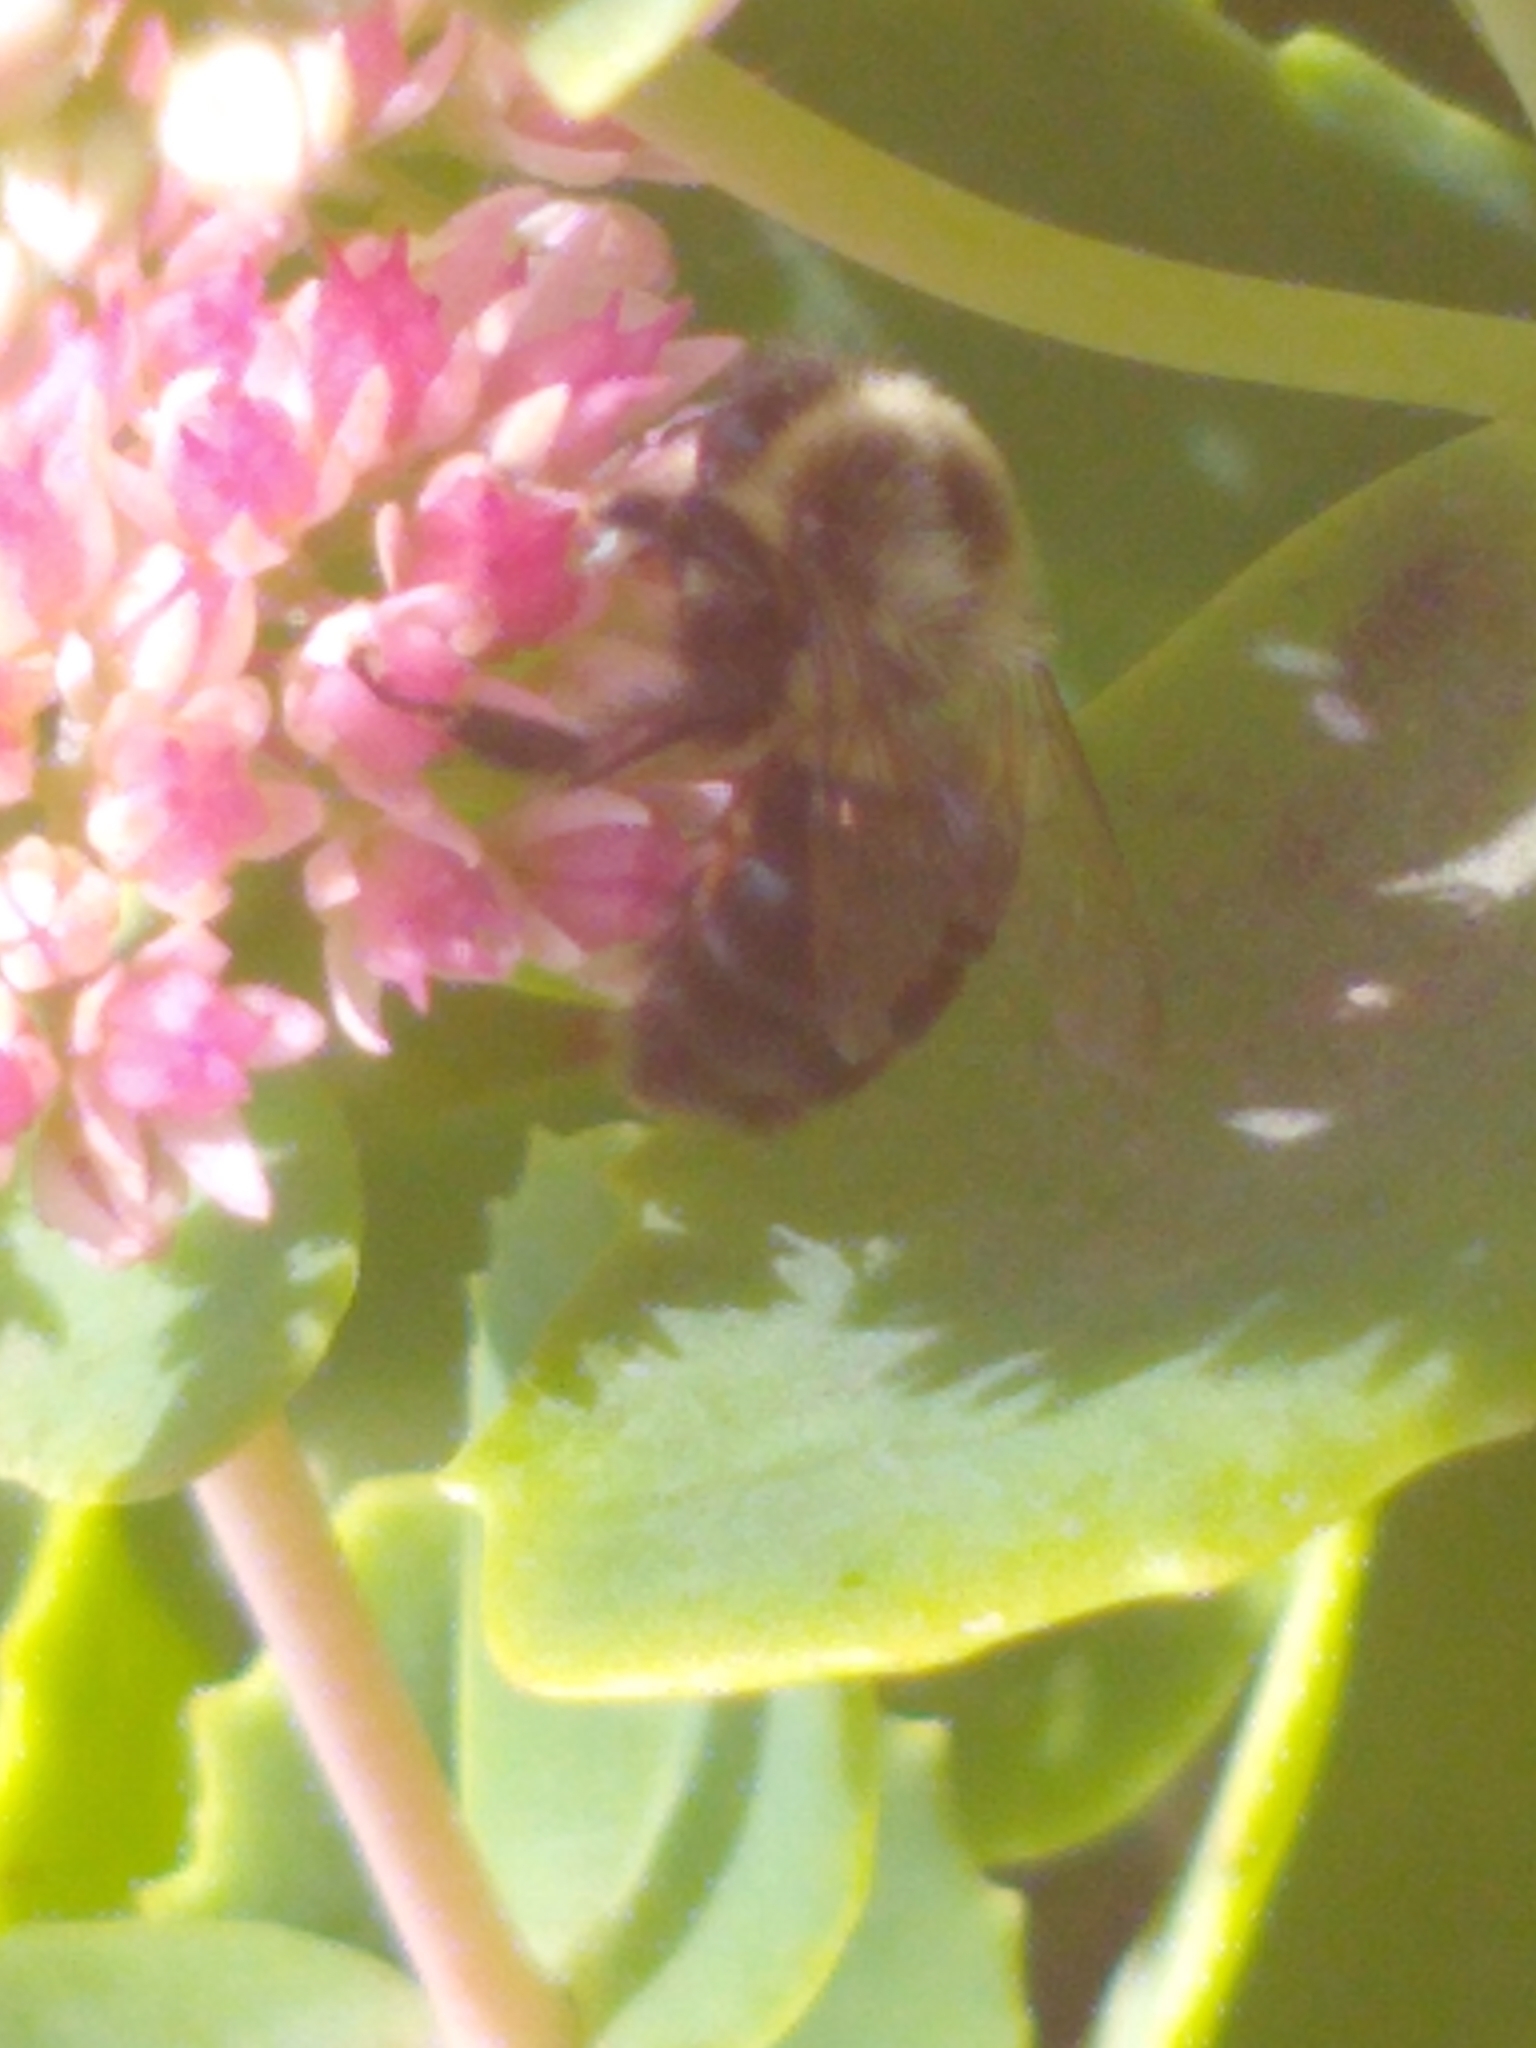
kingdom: Animalia
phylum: Arthropoda
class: Insecta
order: Hymenoptera
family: Apidae
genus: Bombus
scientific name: Bombus impatiens
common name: Common eastern bumble bee
